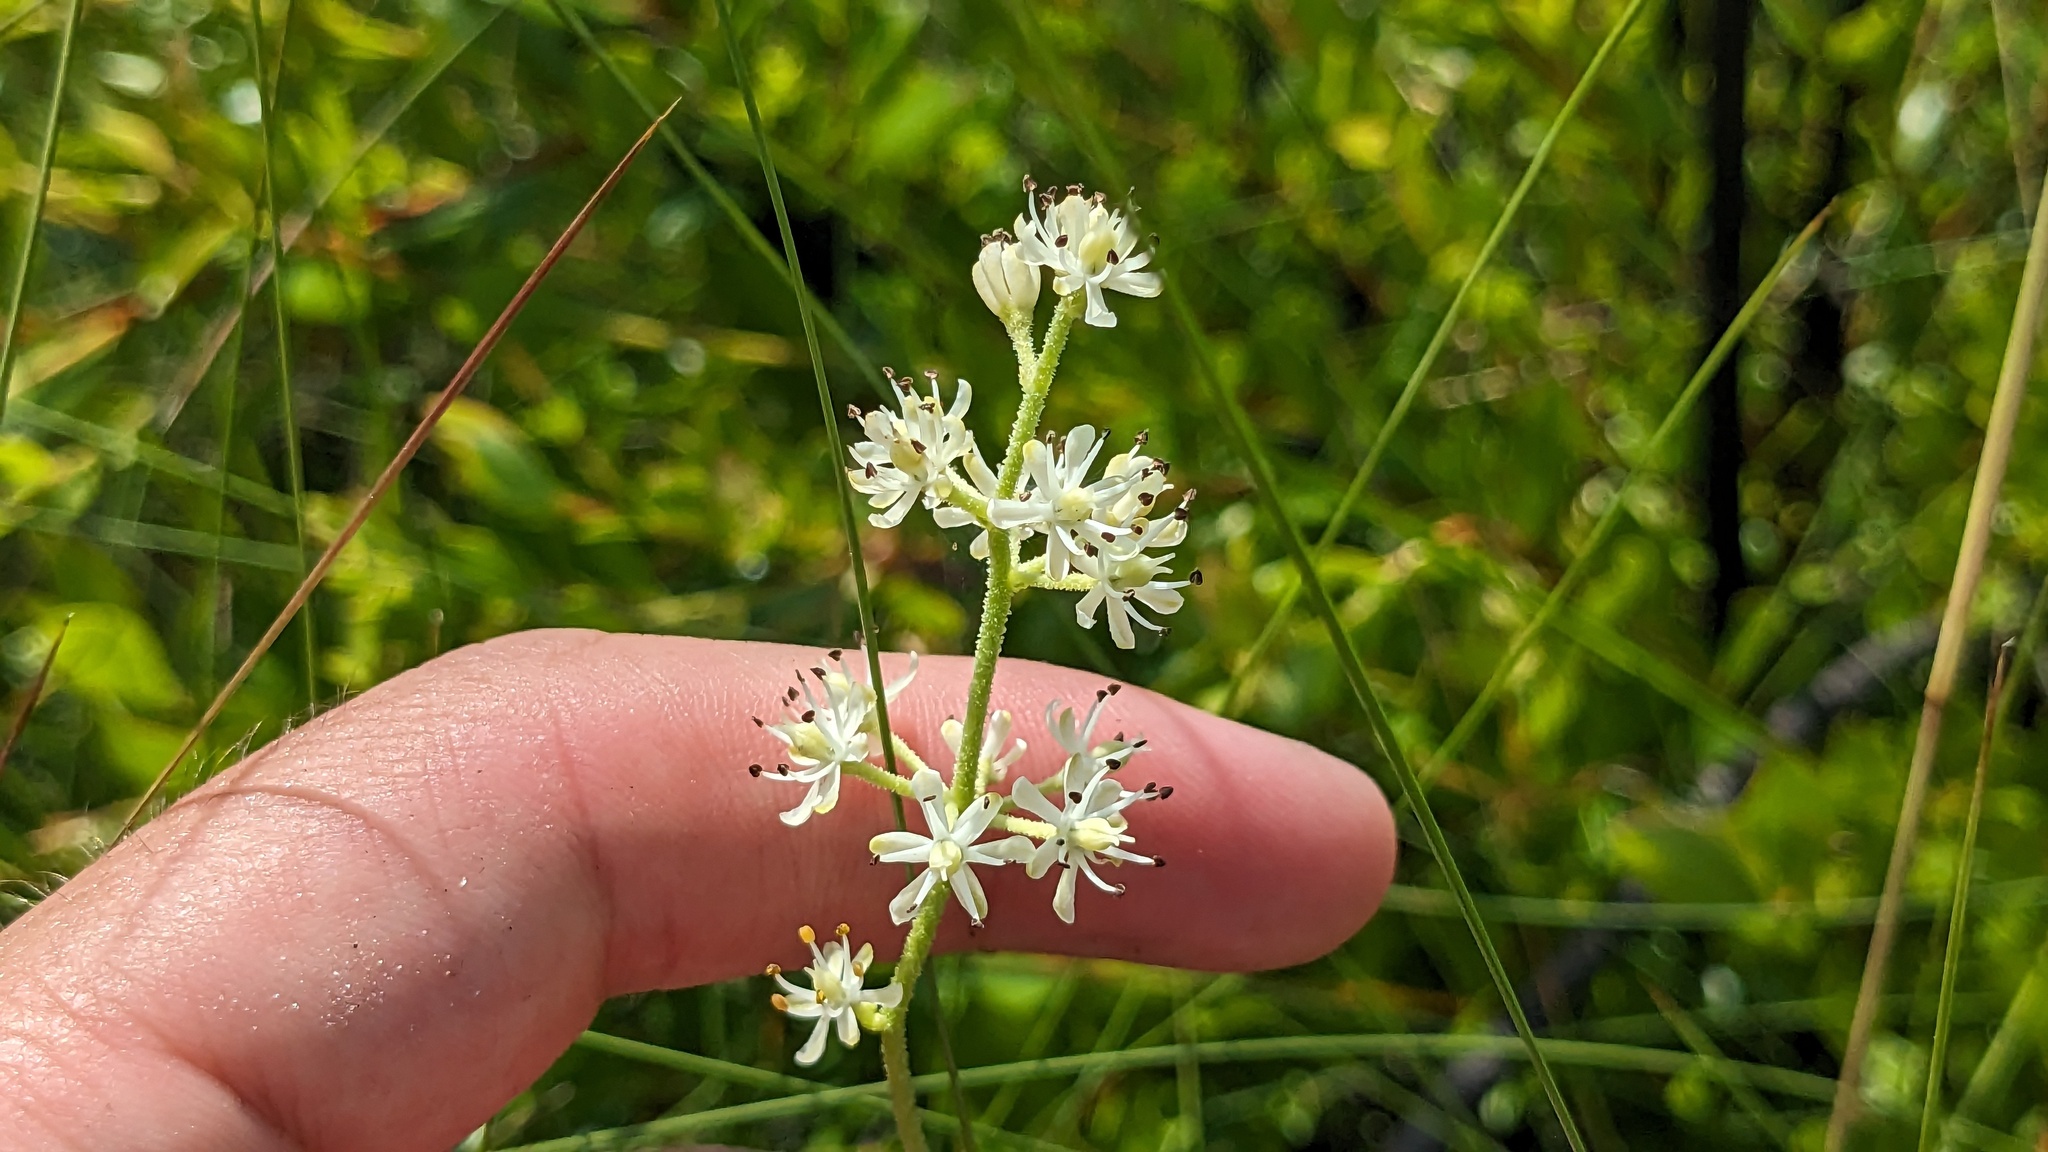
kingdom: Plantae
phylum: Tracheophyta
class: Liliopsida
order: Alismatales
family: Tofieldiaceae
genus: Triantha
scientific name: Triantha racemosa
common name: Coastal false asphodel
